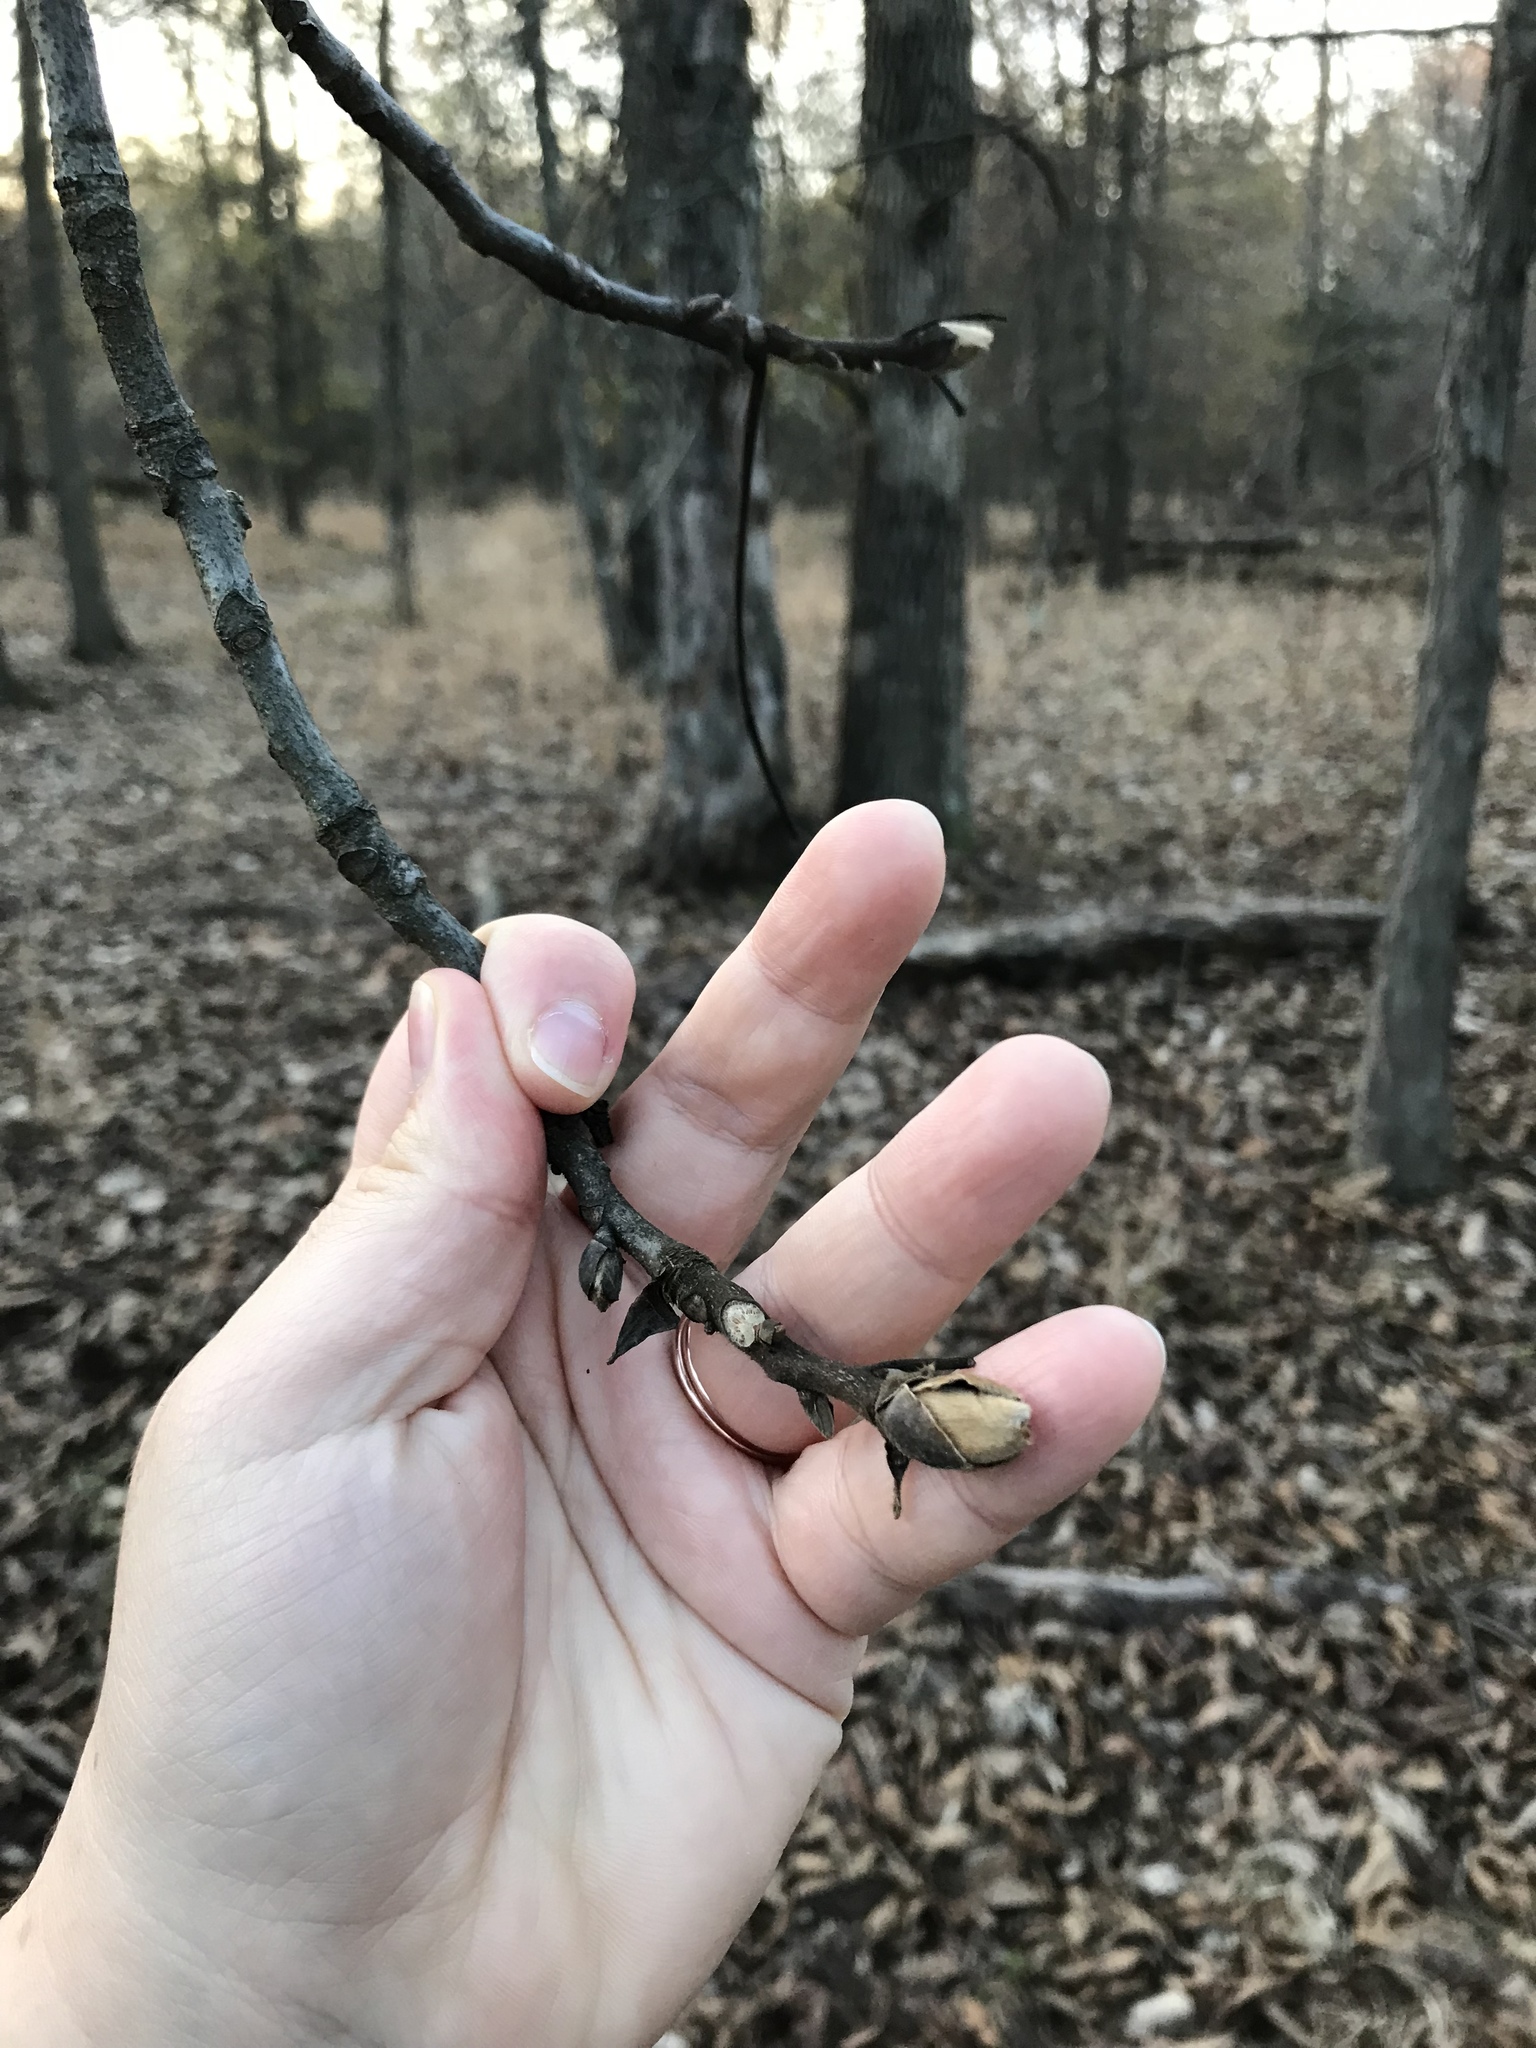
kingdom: Plantae
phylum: Tracheophyta
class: Magnoliopsida
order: Fagales
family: Juglandaceae
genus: Carya
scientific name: Carya ovata
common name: Shagbark hickory
